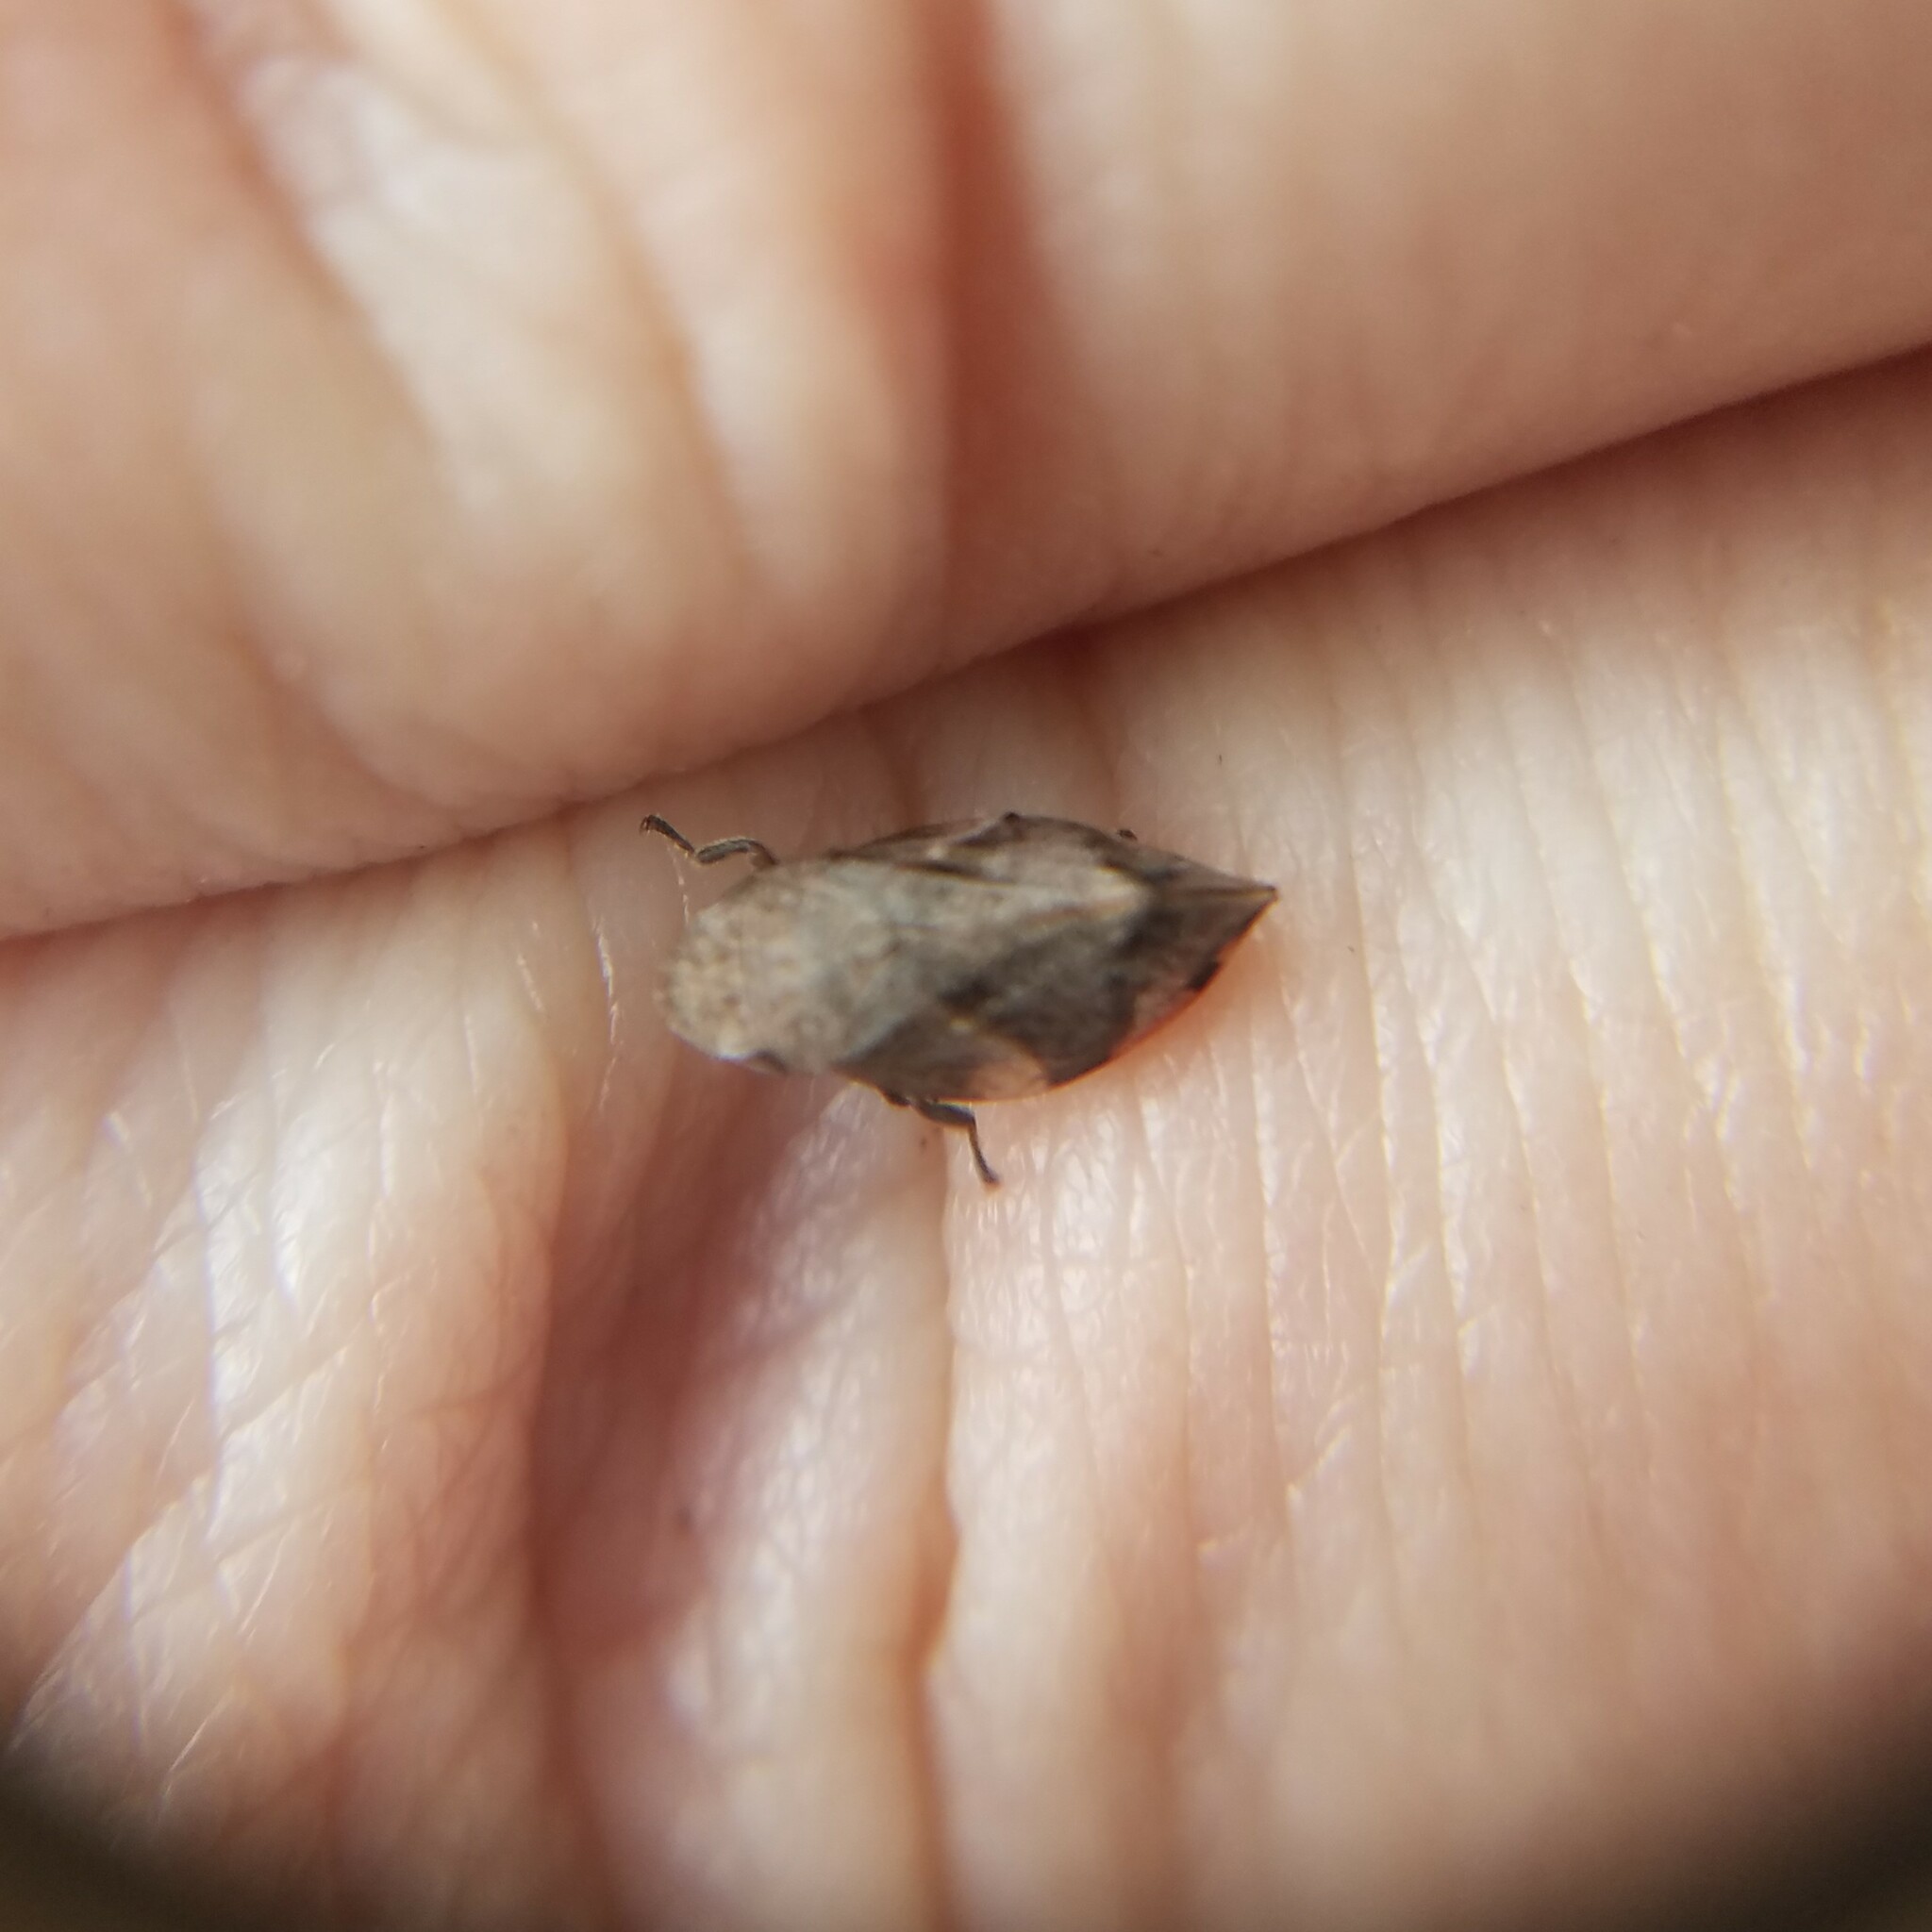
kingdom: Animalia
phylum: Arthropoda
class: Insecta
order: Hemiptera
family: Aphrophoridae
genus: Lepyronia
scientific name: Lepyronia quadrangularis
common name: Diamond-backed spittlebug
